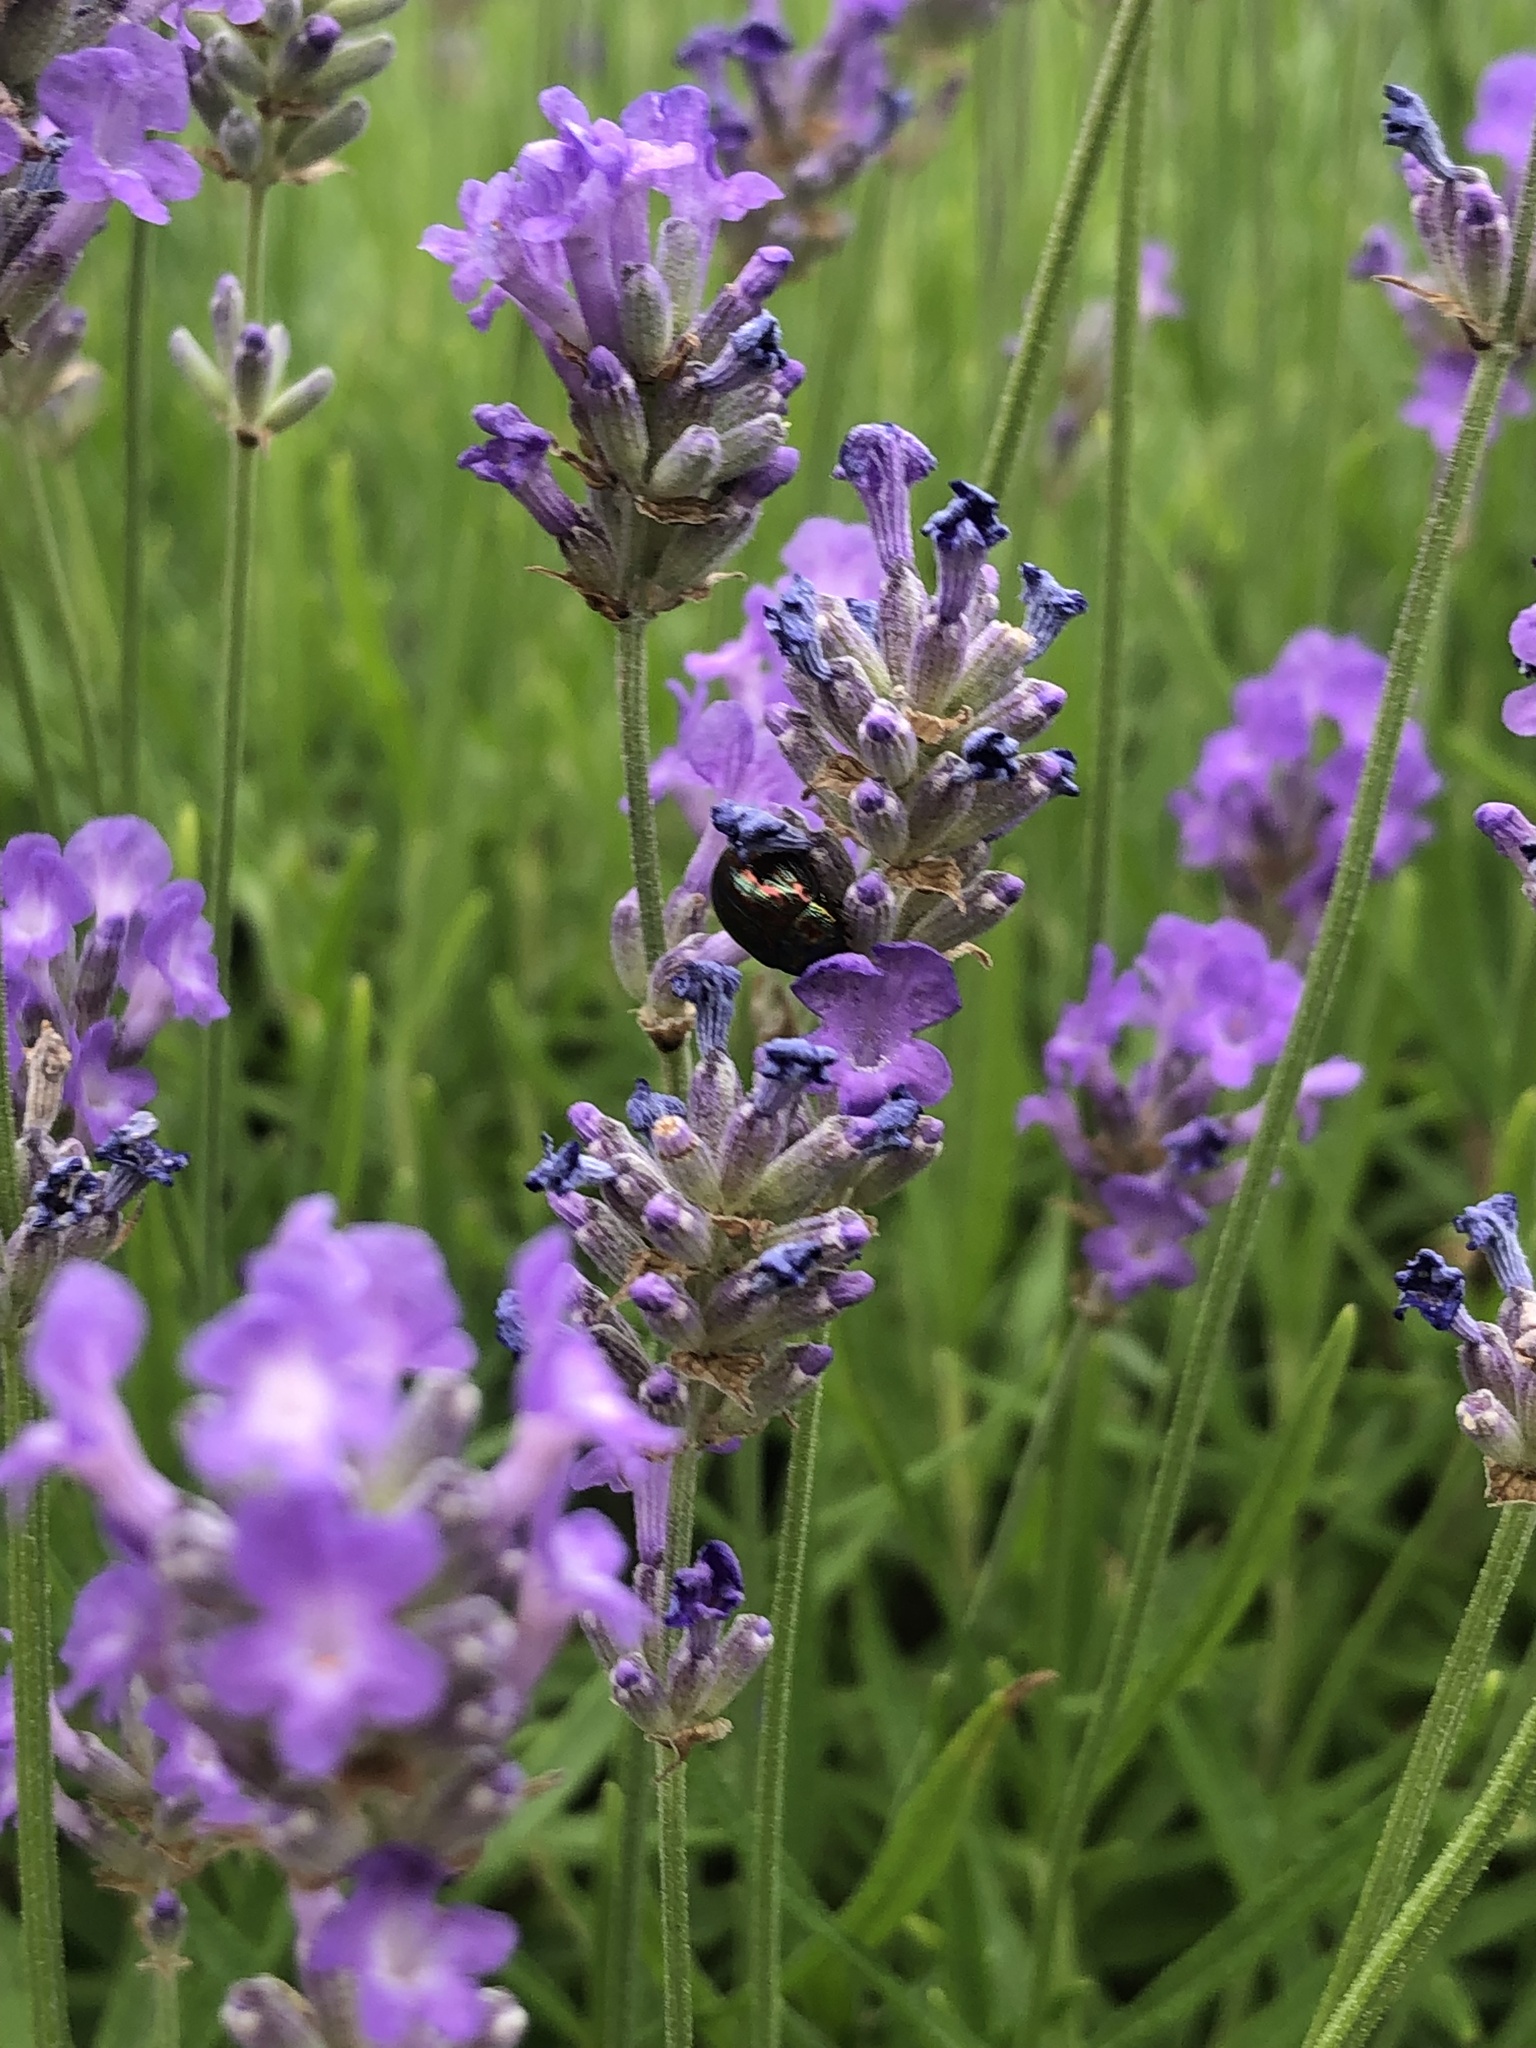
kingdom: Animalia
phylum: Arthropoda
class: Insecta
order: Coleoptera
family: Chrysomelidae
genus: Chrysolina
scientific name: Chrysolina americana
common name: Rosemary beetle
